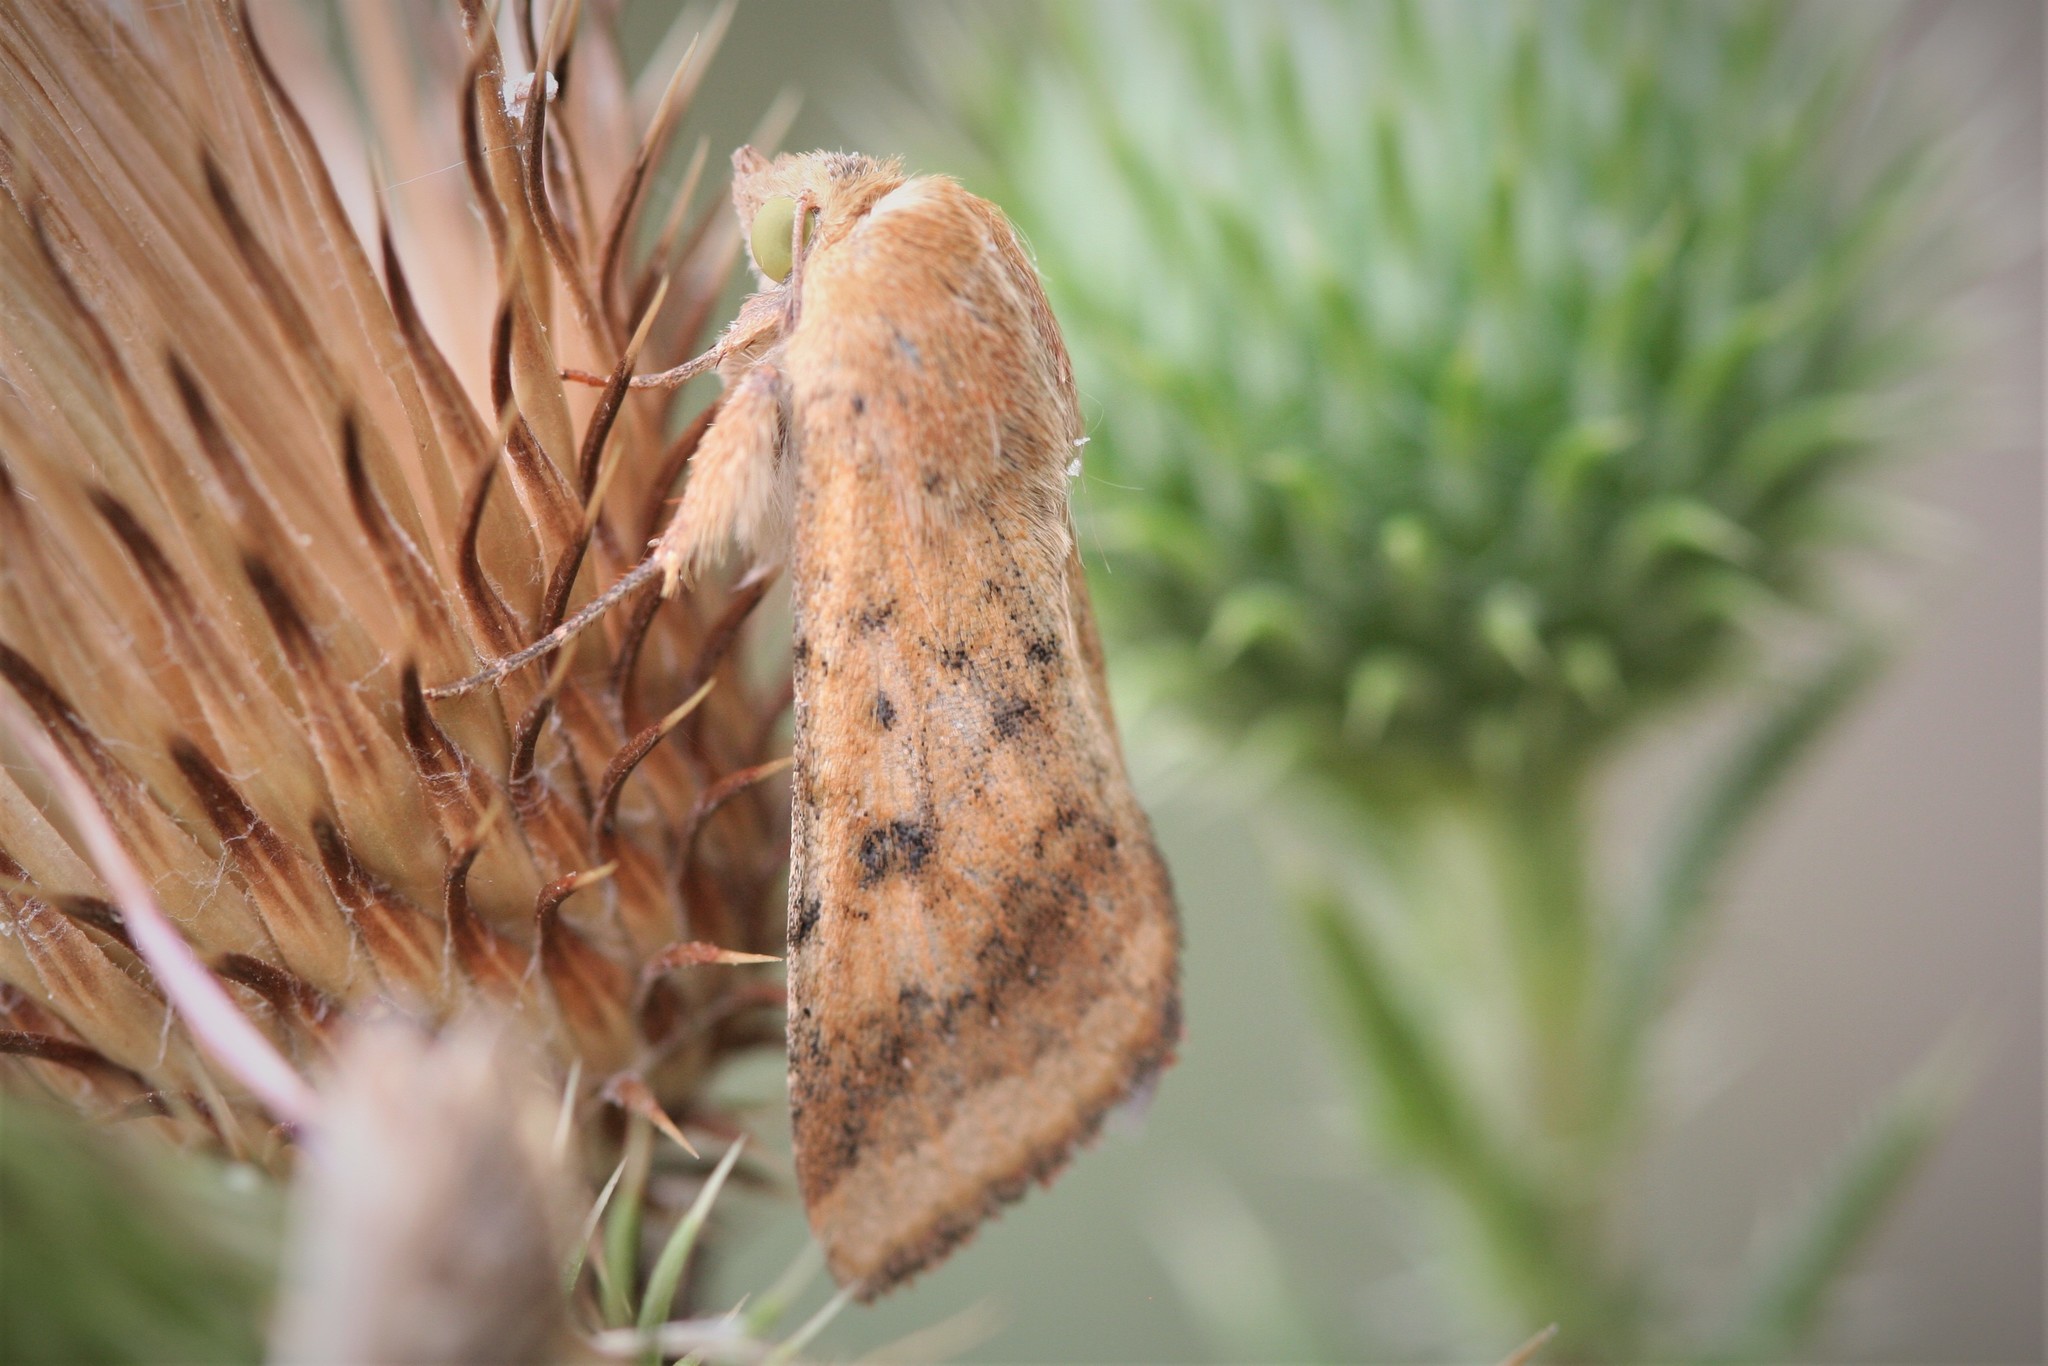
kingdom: Animalia
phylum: Arthropoda
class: Insecta
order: Lepidoptera
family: Noctuidae
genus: Helicoverpa
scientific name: Helicoverpa armigera
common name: Cotton bollworm
